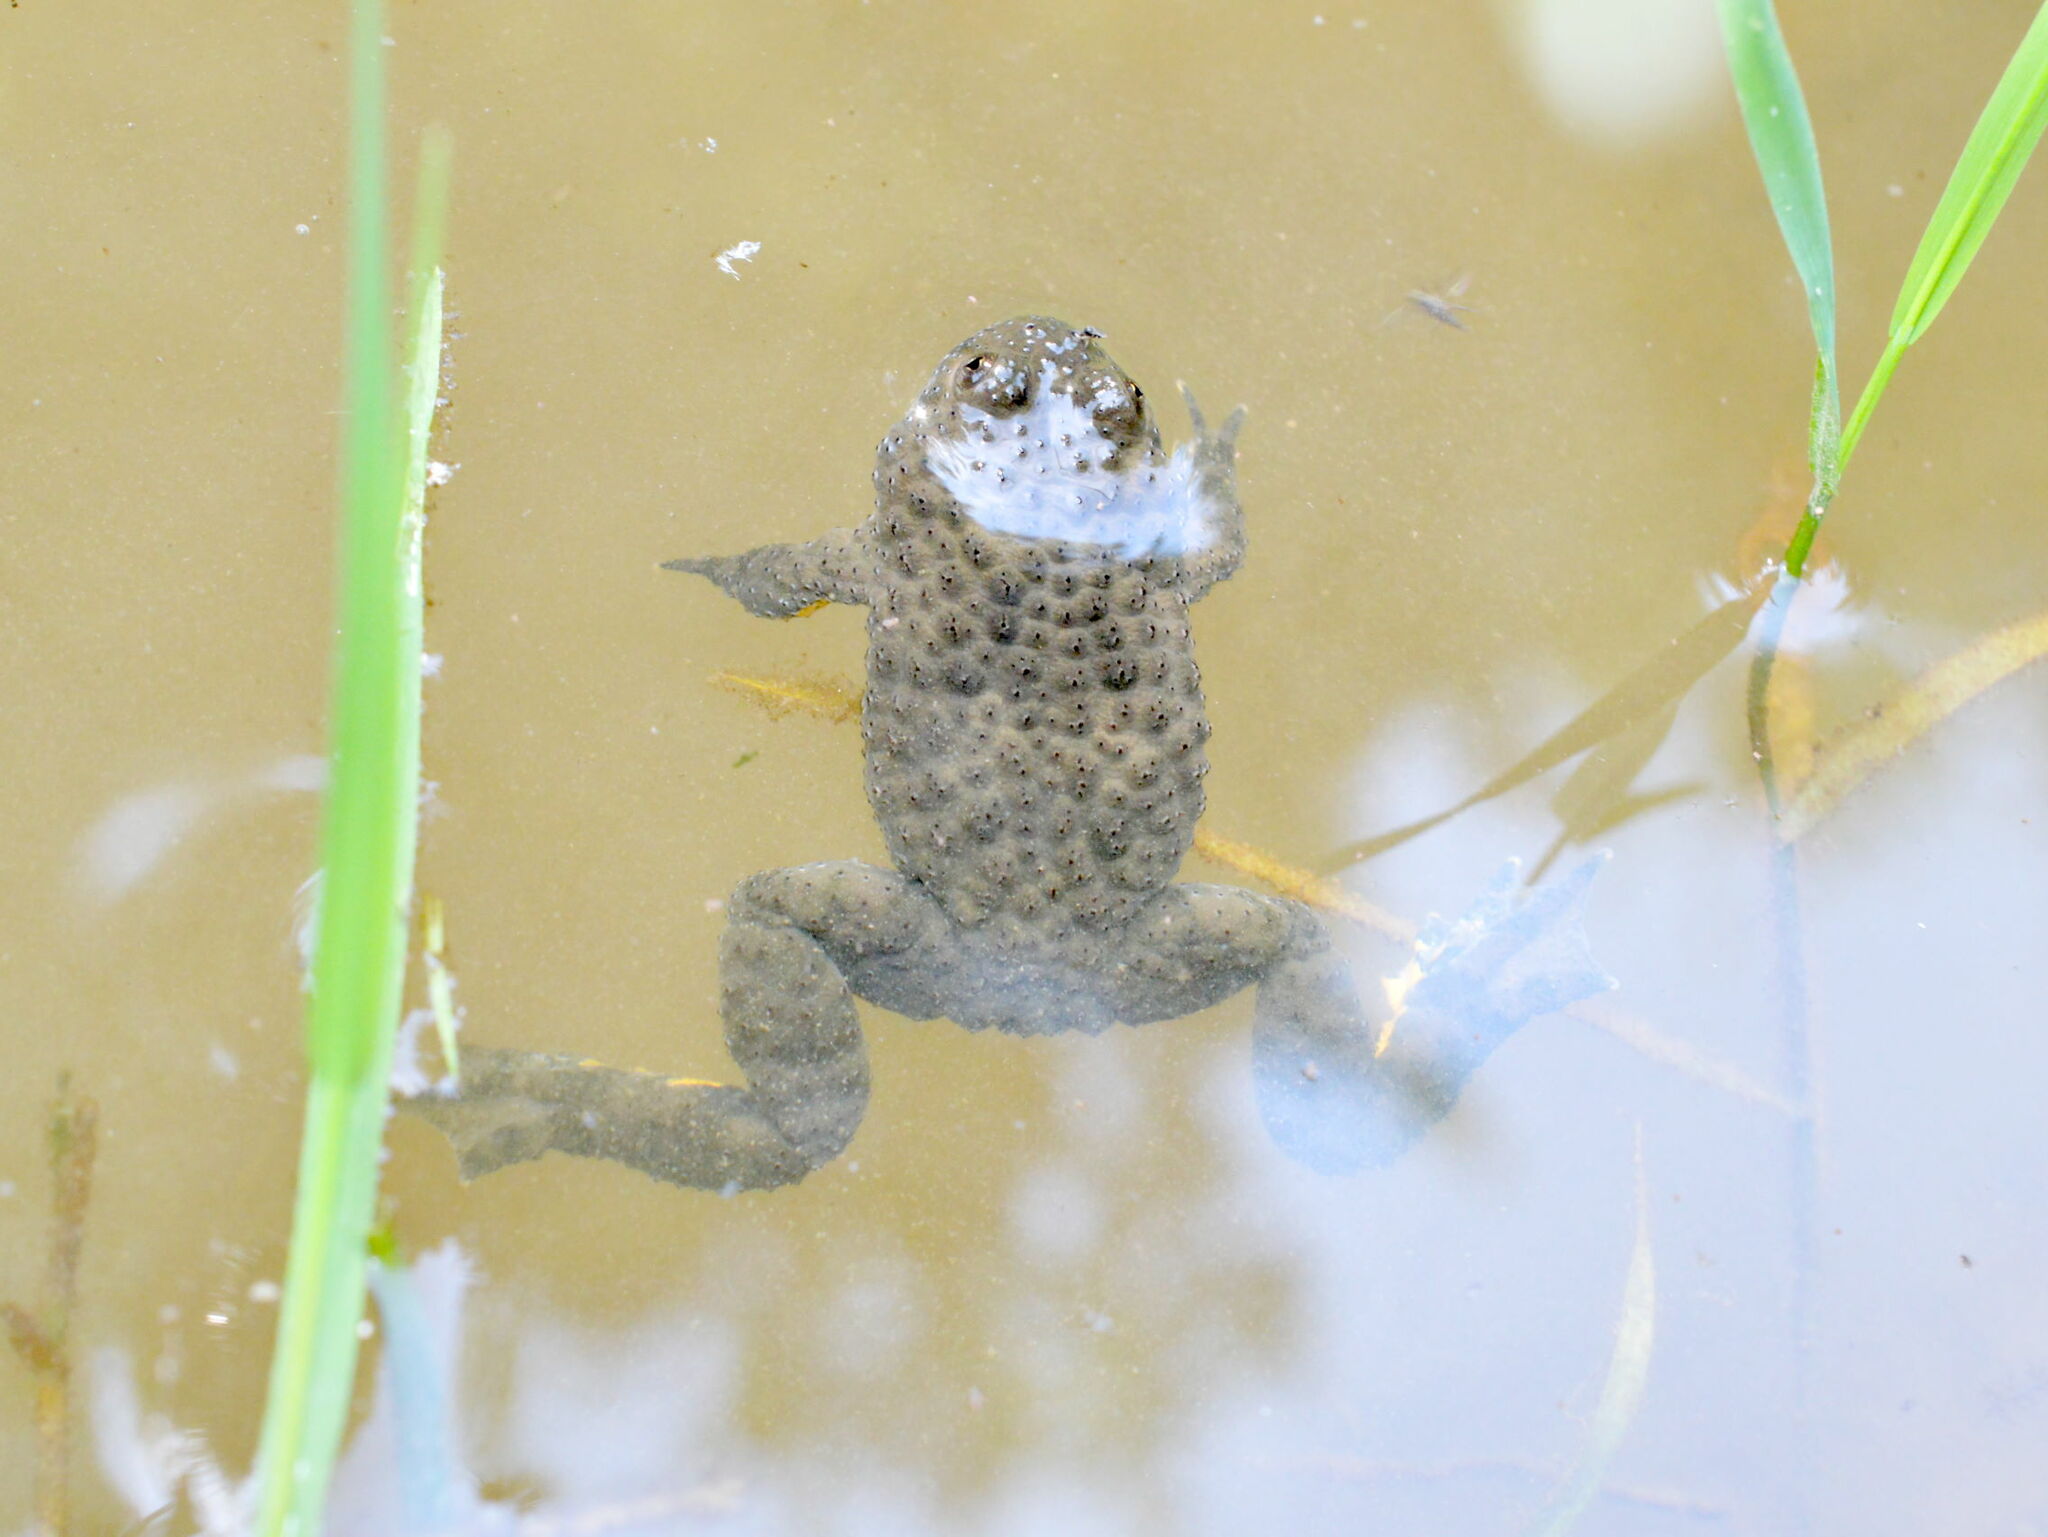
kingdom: Animalia
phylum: Chordata
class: Amphibia
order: Anura
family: Bombinatoridae
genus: Bombina
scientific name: Bombina variegata
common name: Yellow-bellied toad
